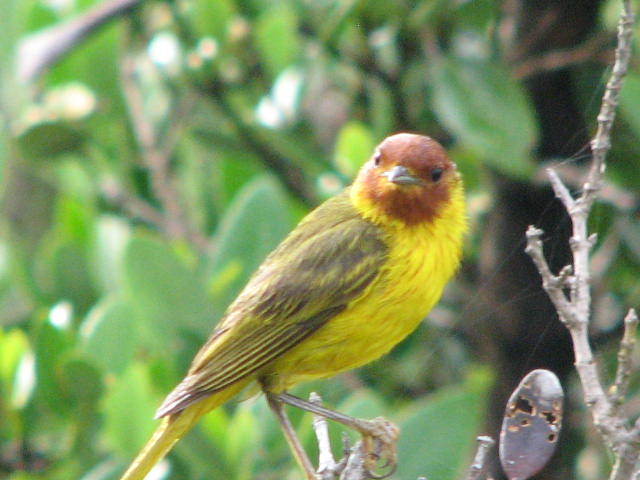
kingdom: Animalia
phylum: Chordata
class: Aves
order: Passeriformes
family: Parulidae
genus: Setophaga
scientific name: Setophaga petechia
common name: Yellow warbler
